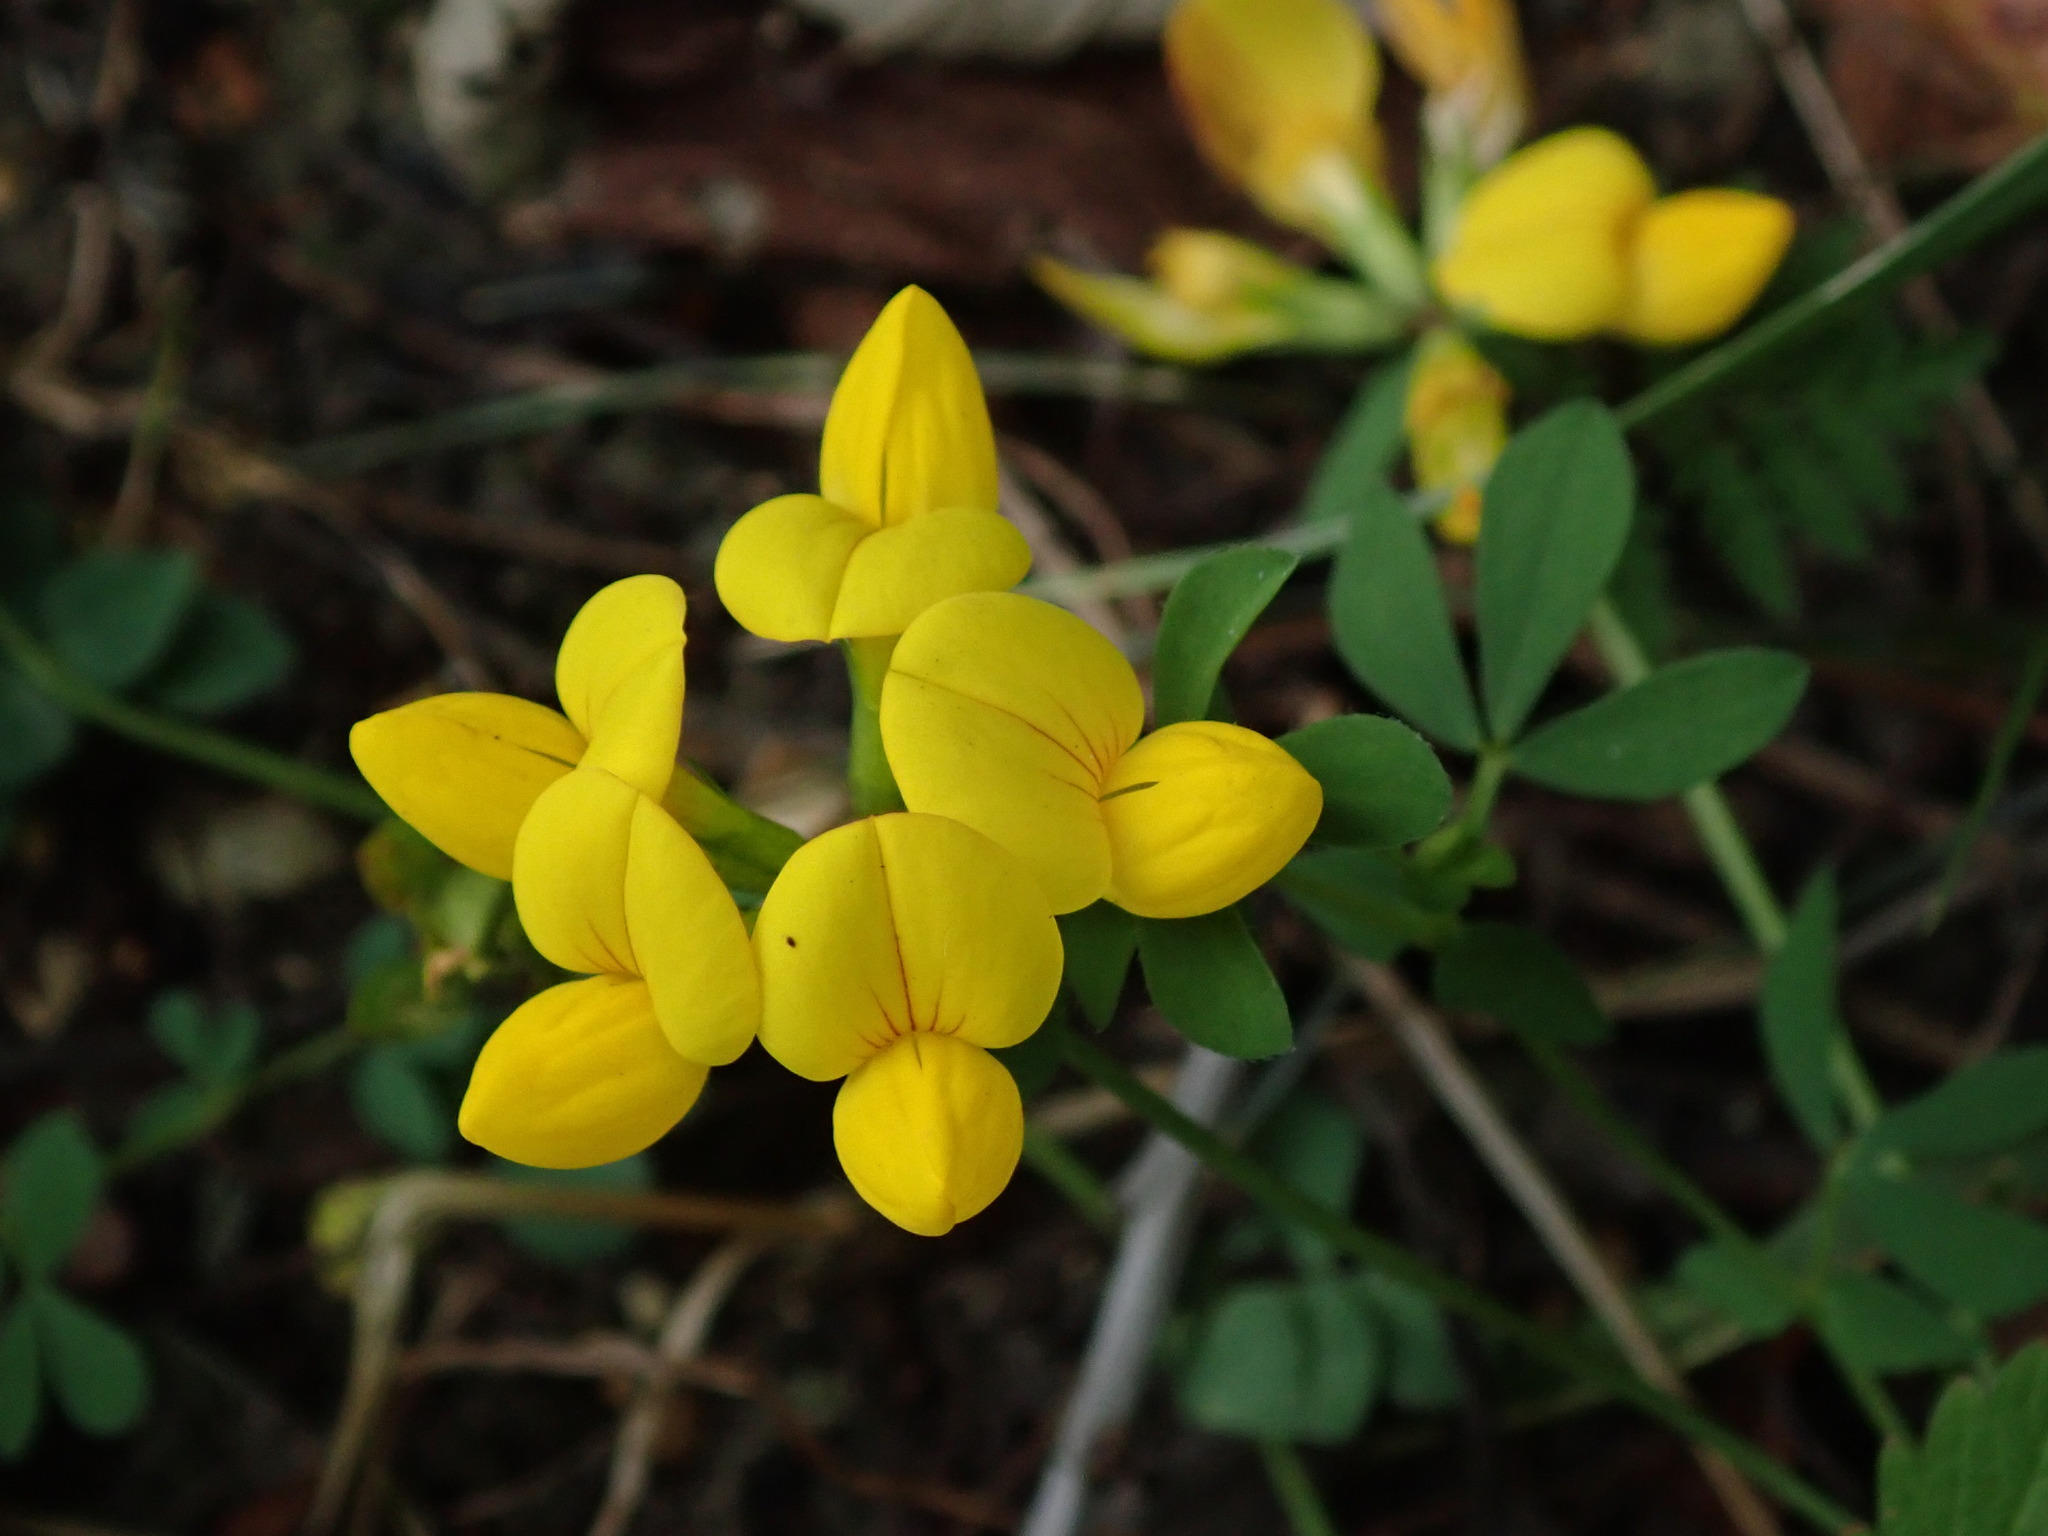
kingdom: Plantae
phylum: Tracheophyta
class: Magnoliopsida
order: Fabales
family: Fabaceae
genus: Lotus
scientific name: Lotus corniculatus
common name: Common bird's-foot-trefoil
